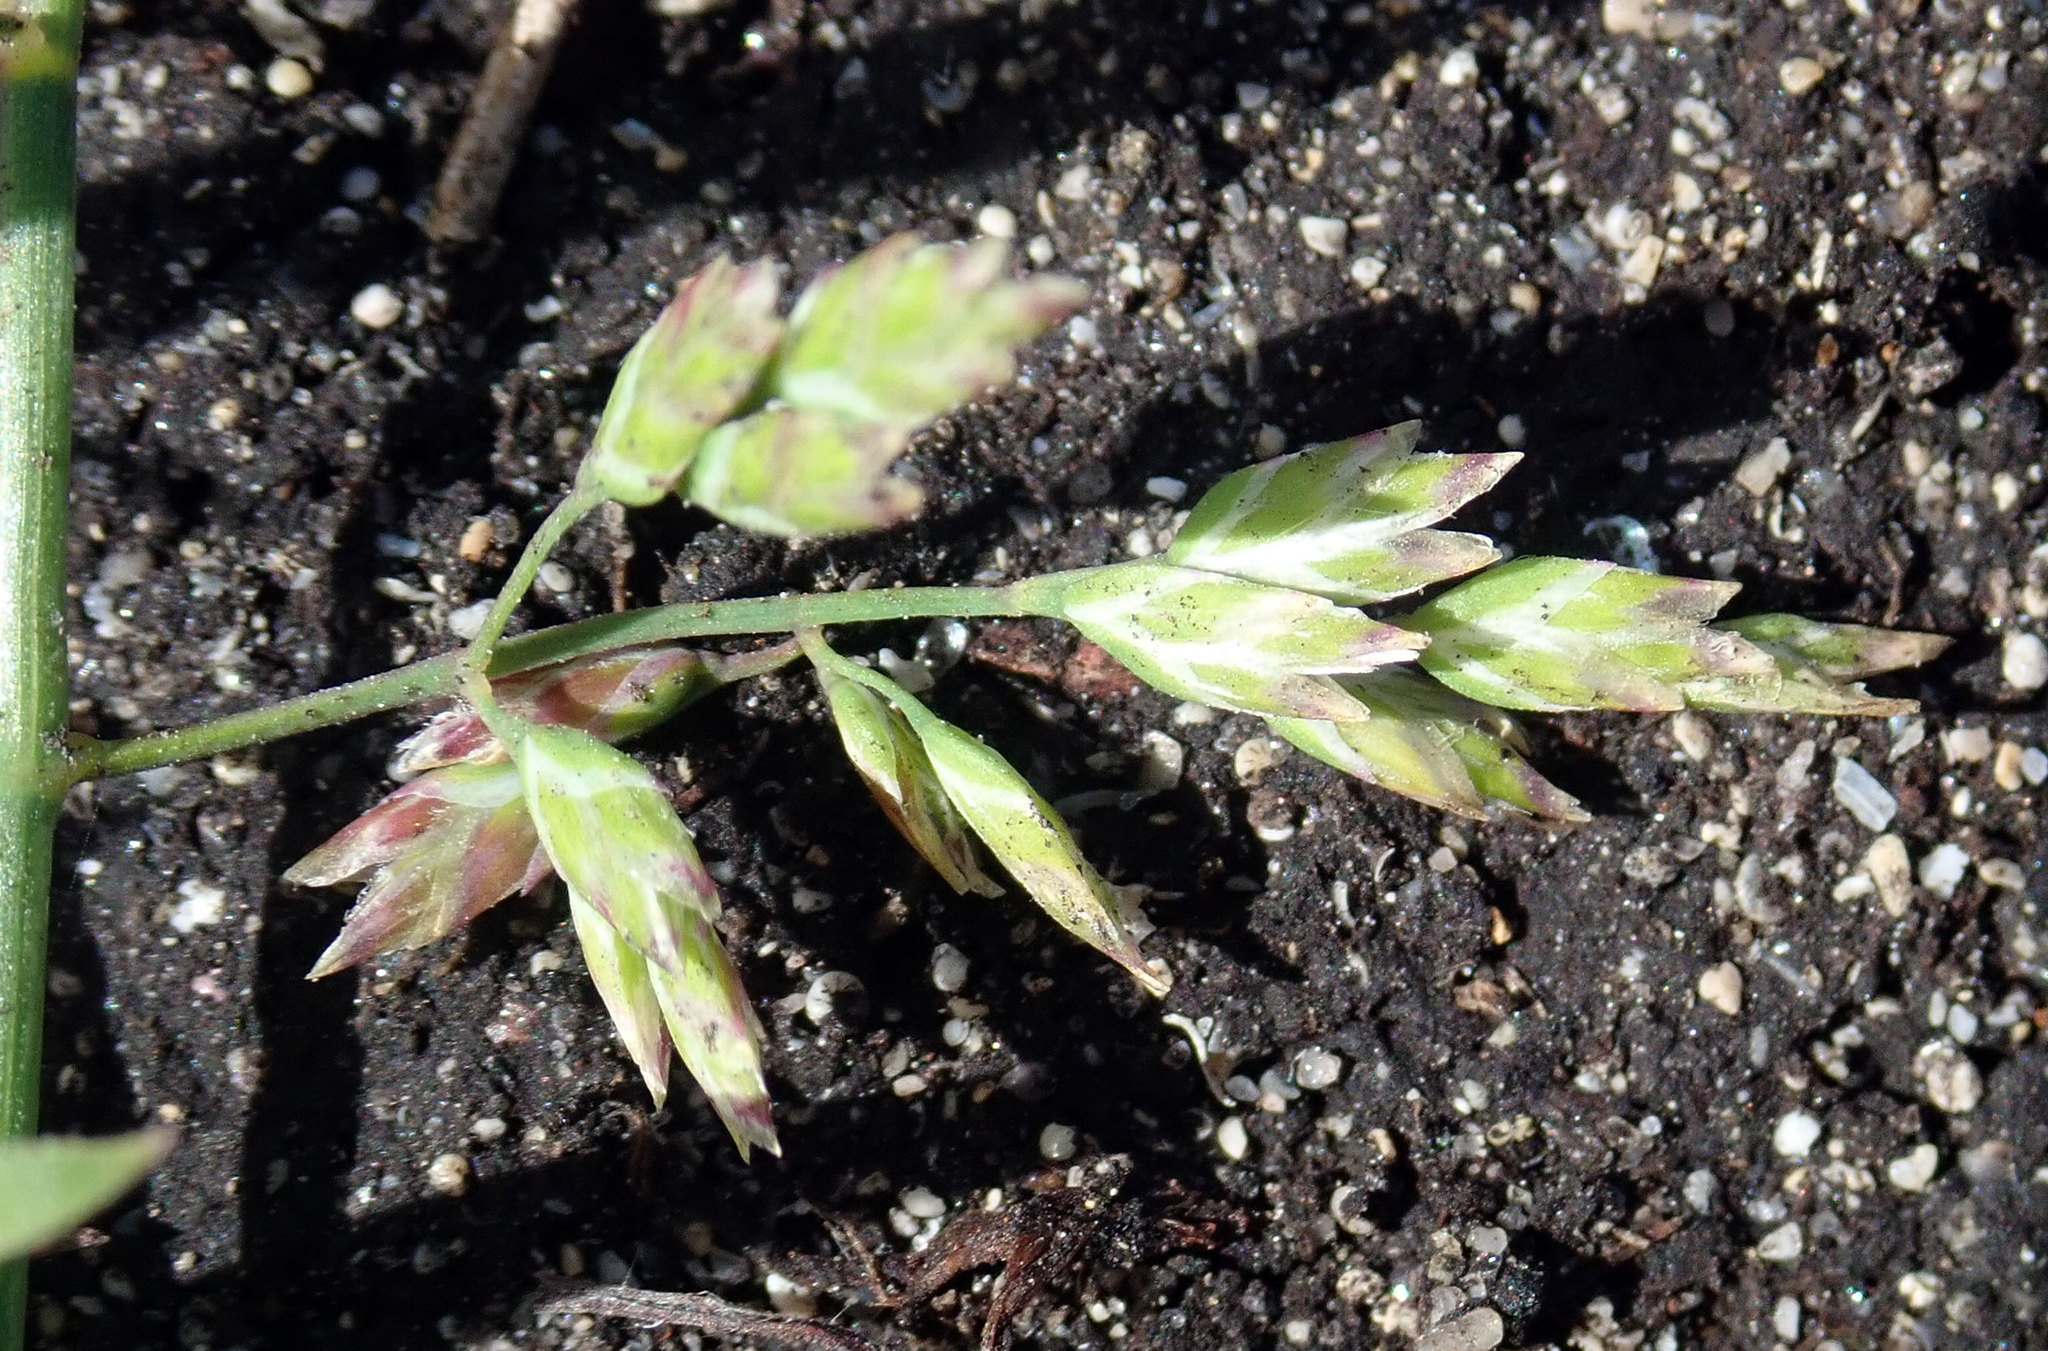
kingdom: Plantae
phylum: Tracheophyta
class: Liliopsida
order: Poales
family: Poaceae
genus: Poa
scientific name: Poa annua
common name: Annual bluegrass
